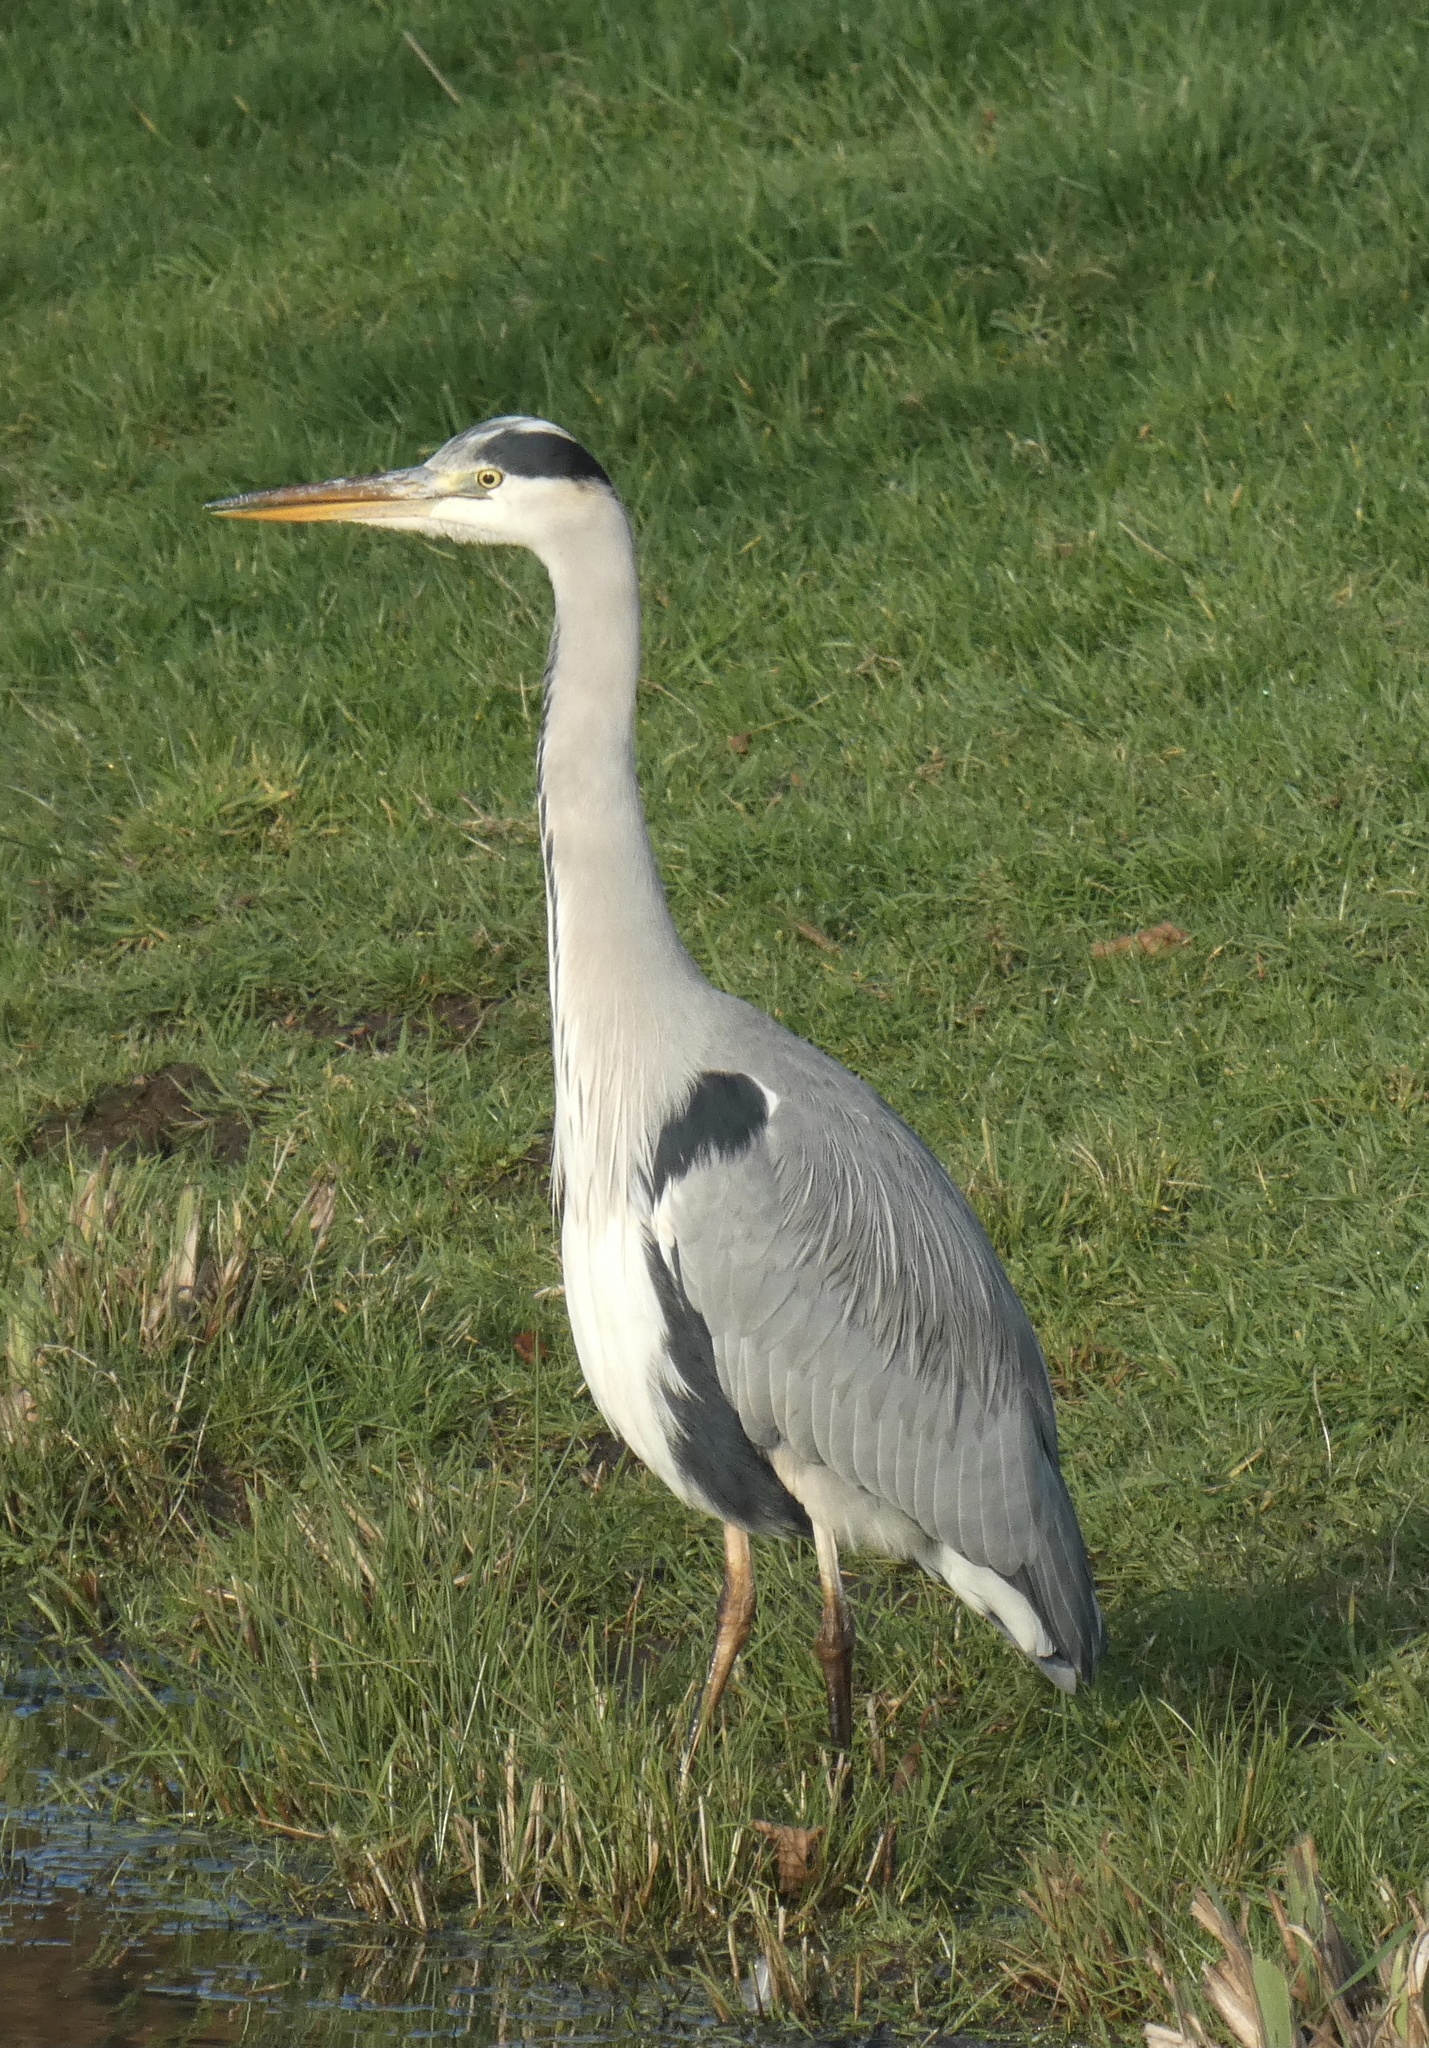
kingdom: Animalia
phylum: Chordata
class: Aves
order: Pelecaniformes
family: Ardeidae
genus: Ardea
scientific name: Ardea cinerea
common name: Grey heron
